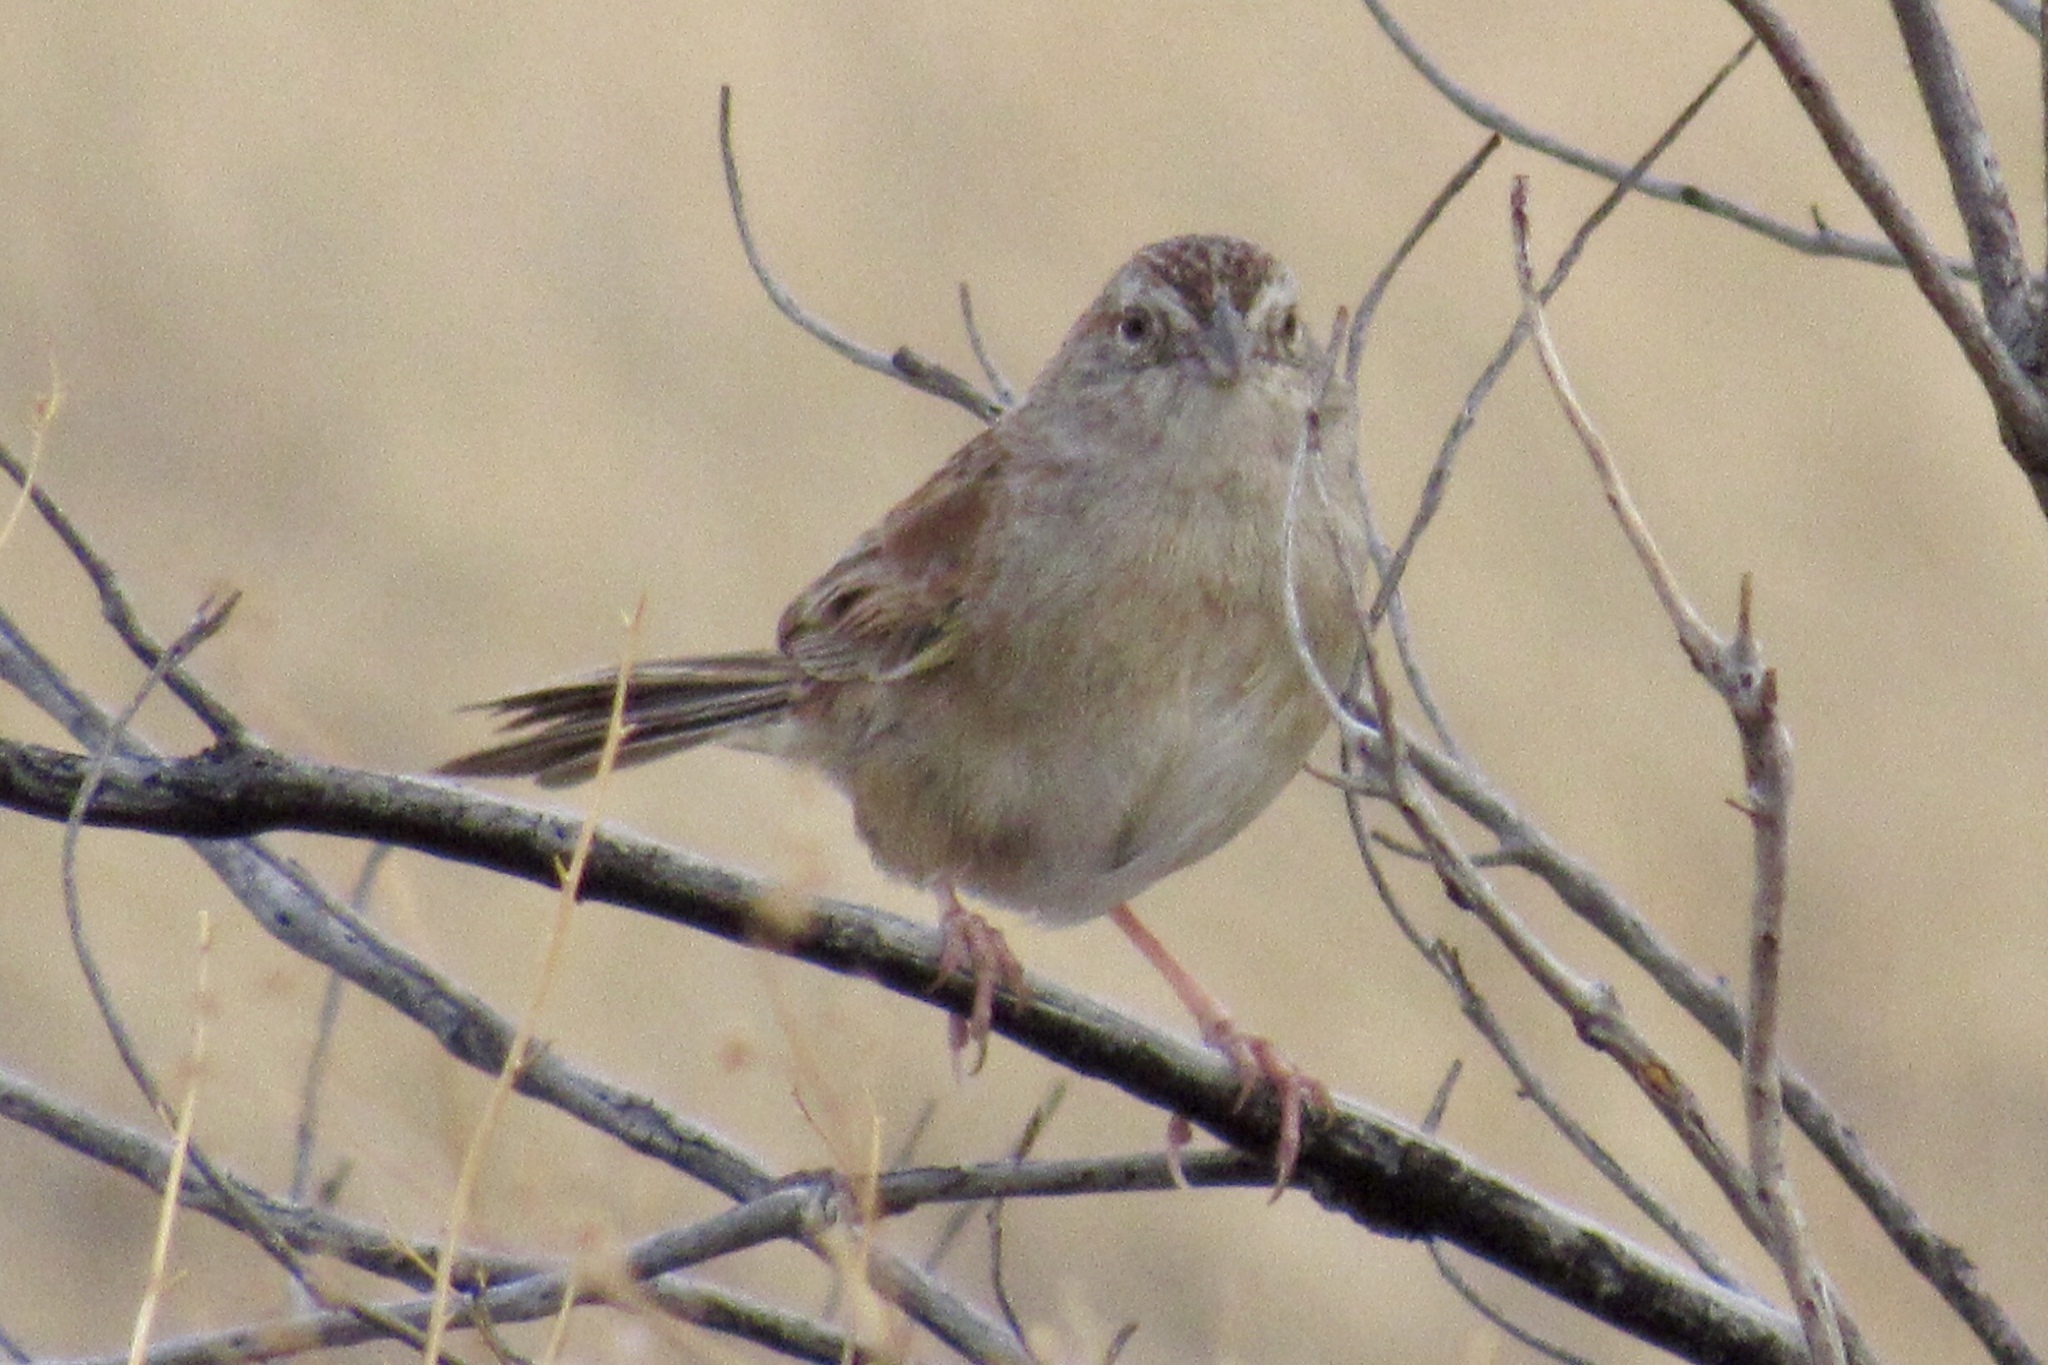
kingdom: Animalia
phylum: Chordata
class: Aves
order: Passeriformes
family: Passerellidae
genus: Peucaea
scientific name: Peucaea botterii
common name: Botteri's sparrow
